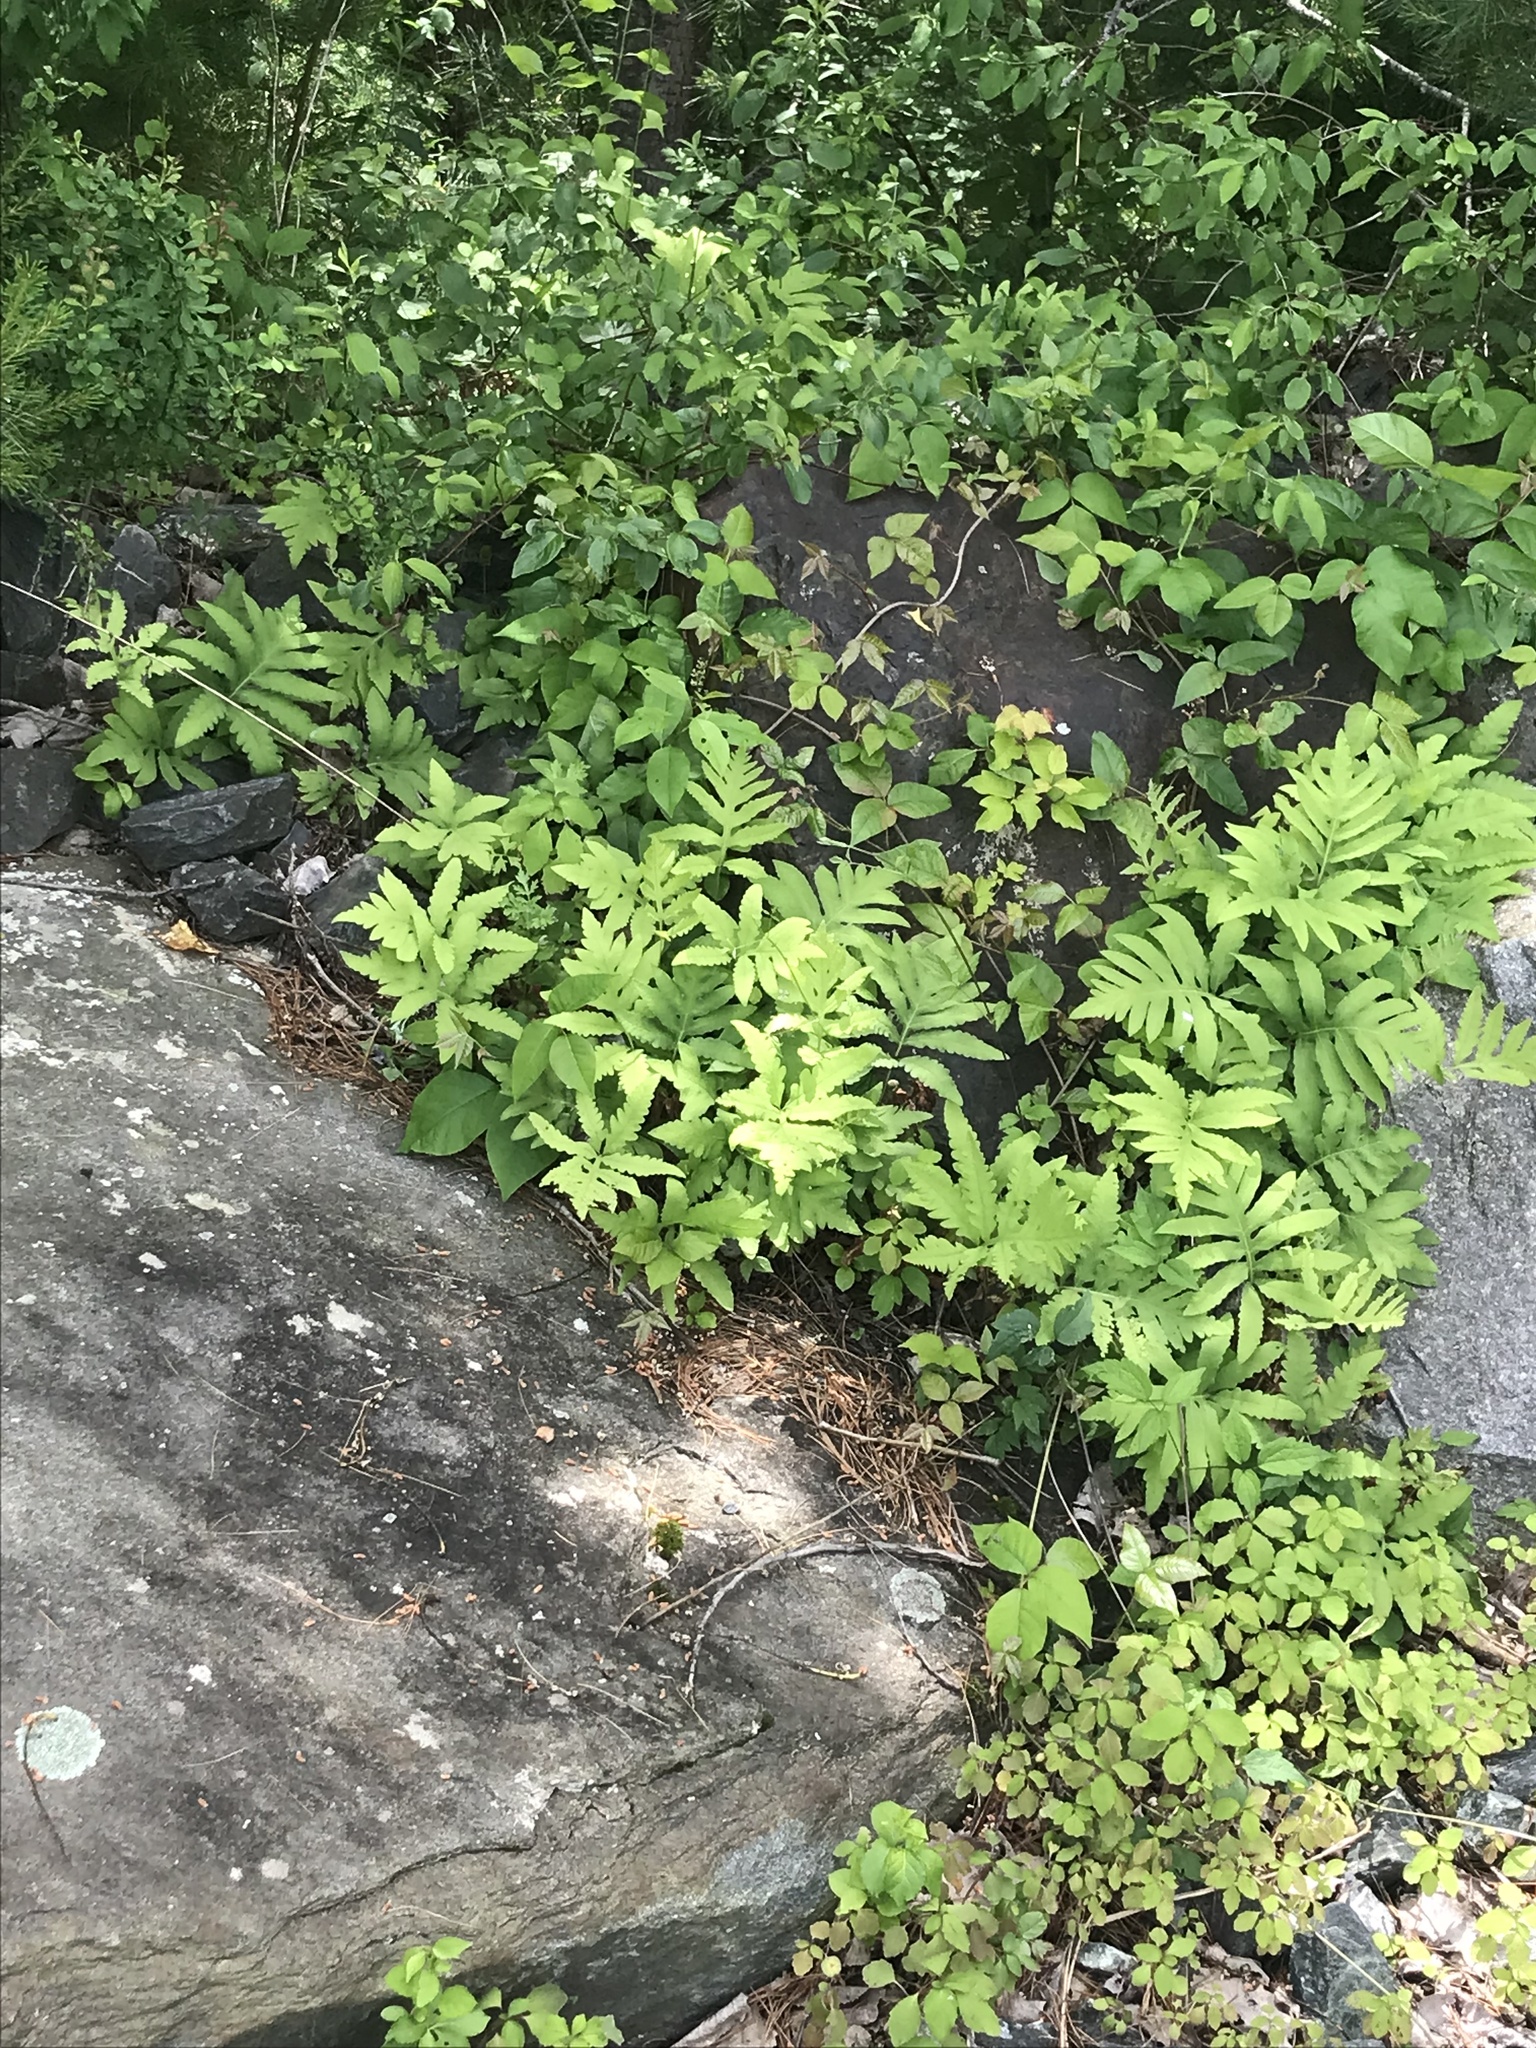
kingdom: Plantae
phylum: Tracheophyta
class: Polypodiopsida
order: Polypodiales
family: Onocleaceae
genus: Onoclea
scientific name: Onoclea sensibilis
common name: Sensitive fern
